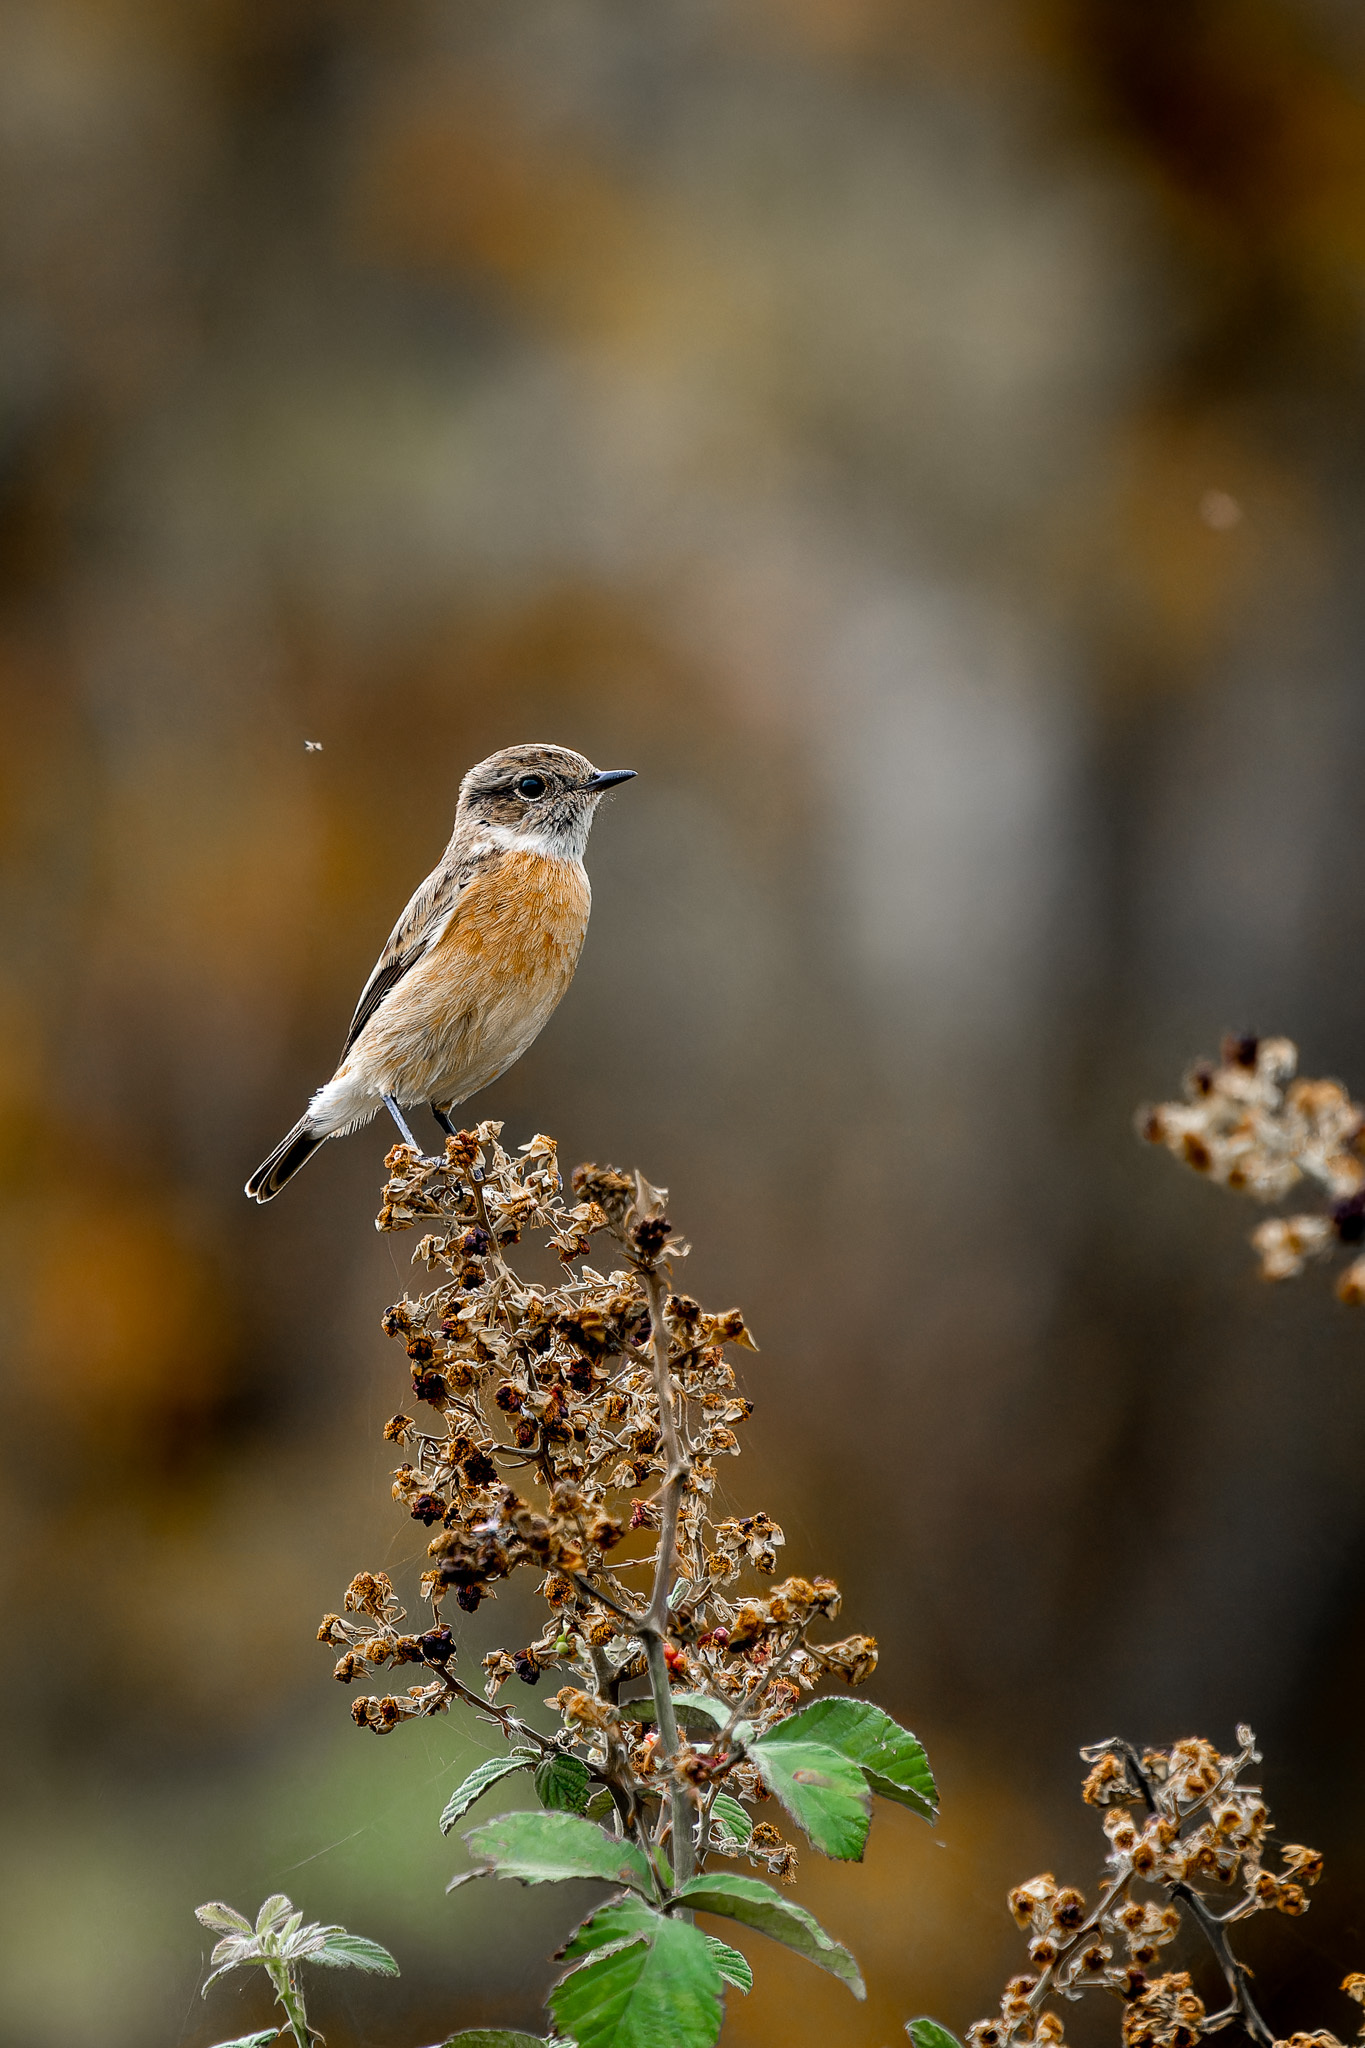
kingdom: Animalia
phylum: Chordata
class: Aves
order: Passeriformes
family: Muscicapidae
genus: Saxicola
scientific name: Saxicola rubicola
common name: European stonechat
